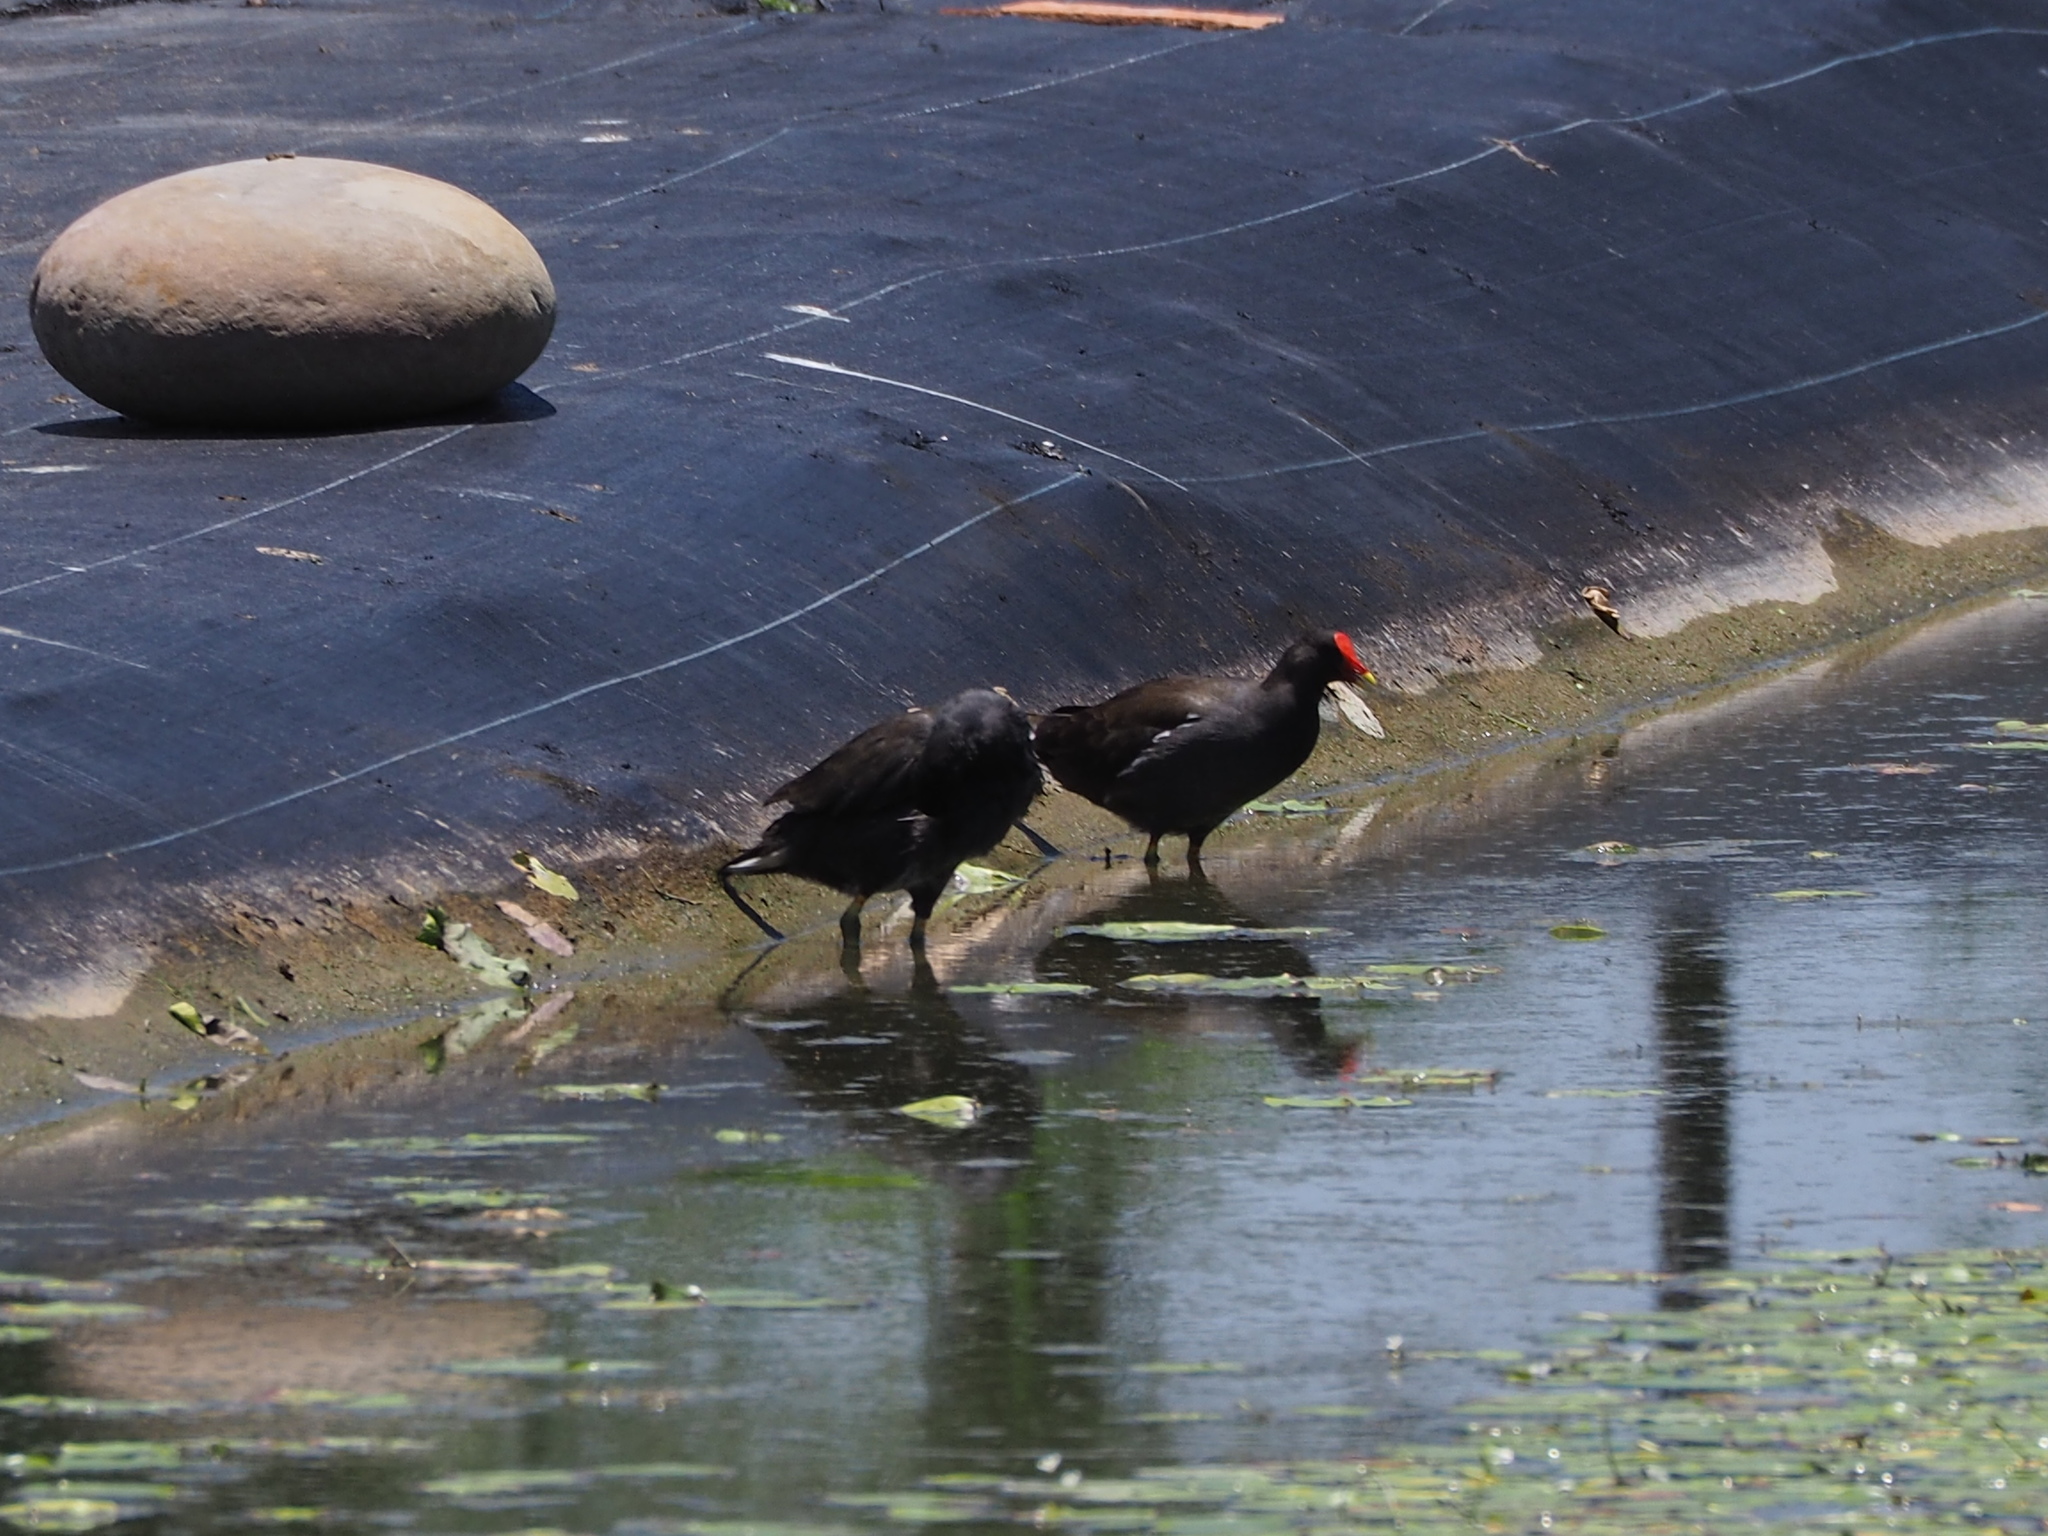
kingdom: Animalia
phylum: Chordata
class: Aves
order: Gruiformes
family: Rallidae
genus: Gallinula
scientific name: Gallinula chloropus
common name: Common moorhen
